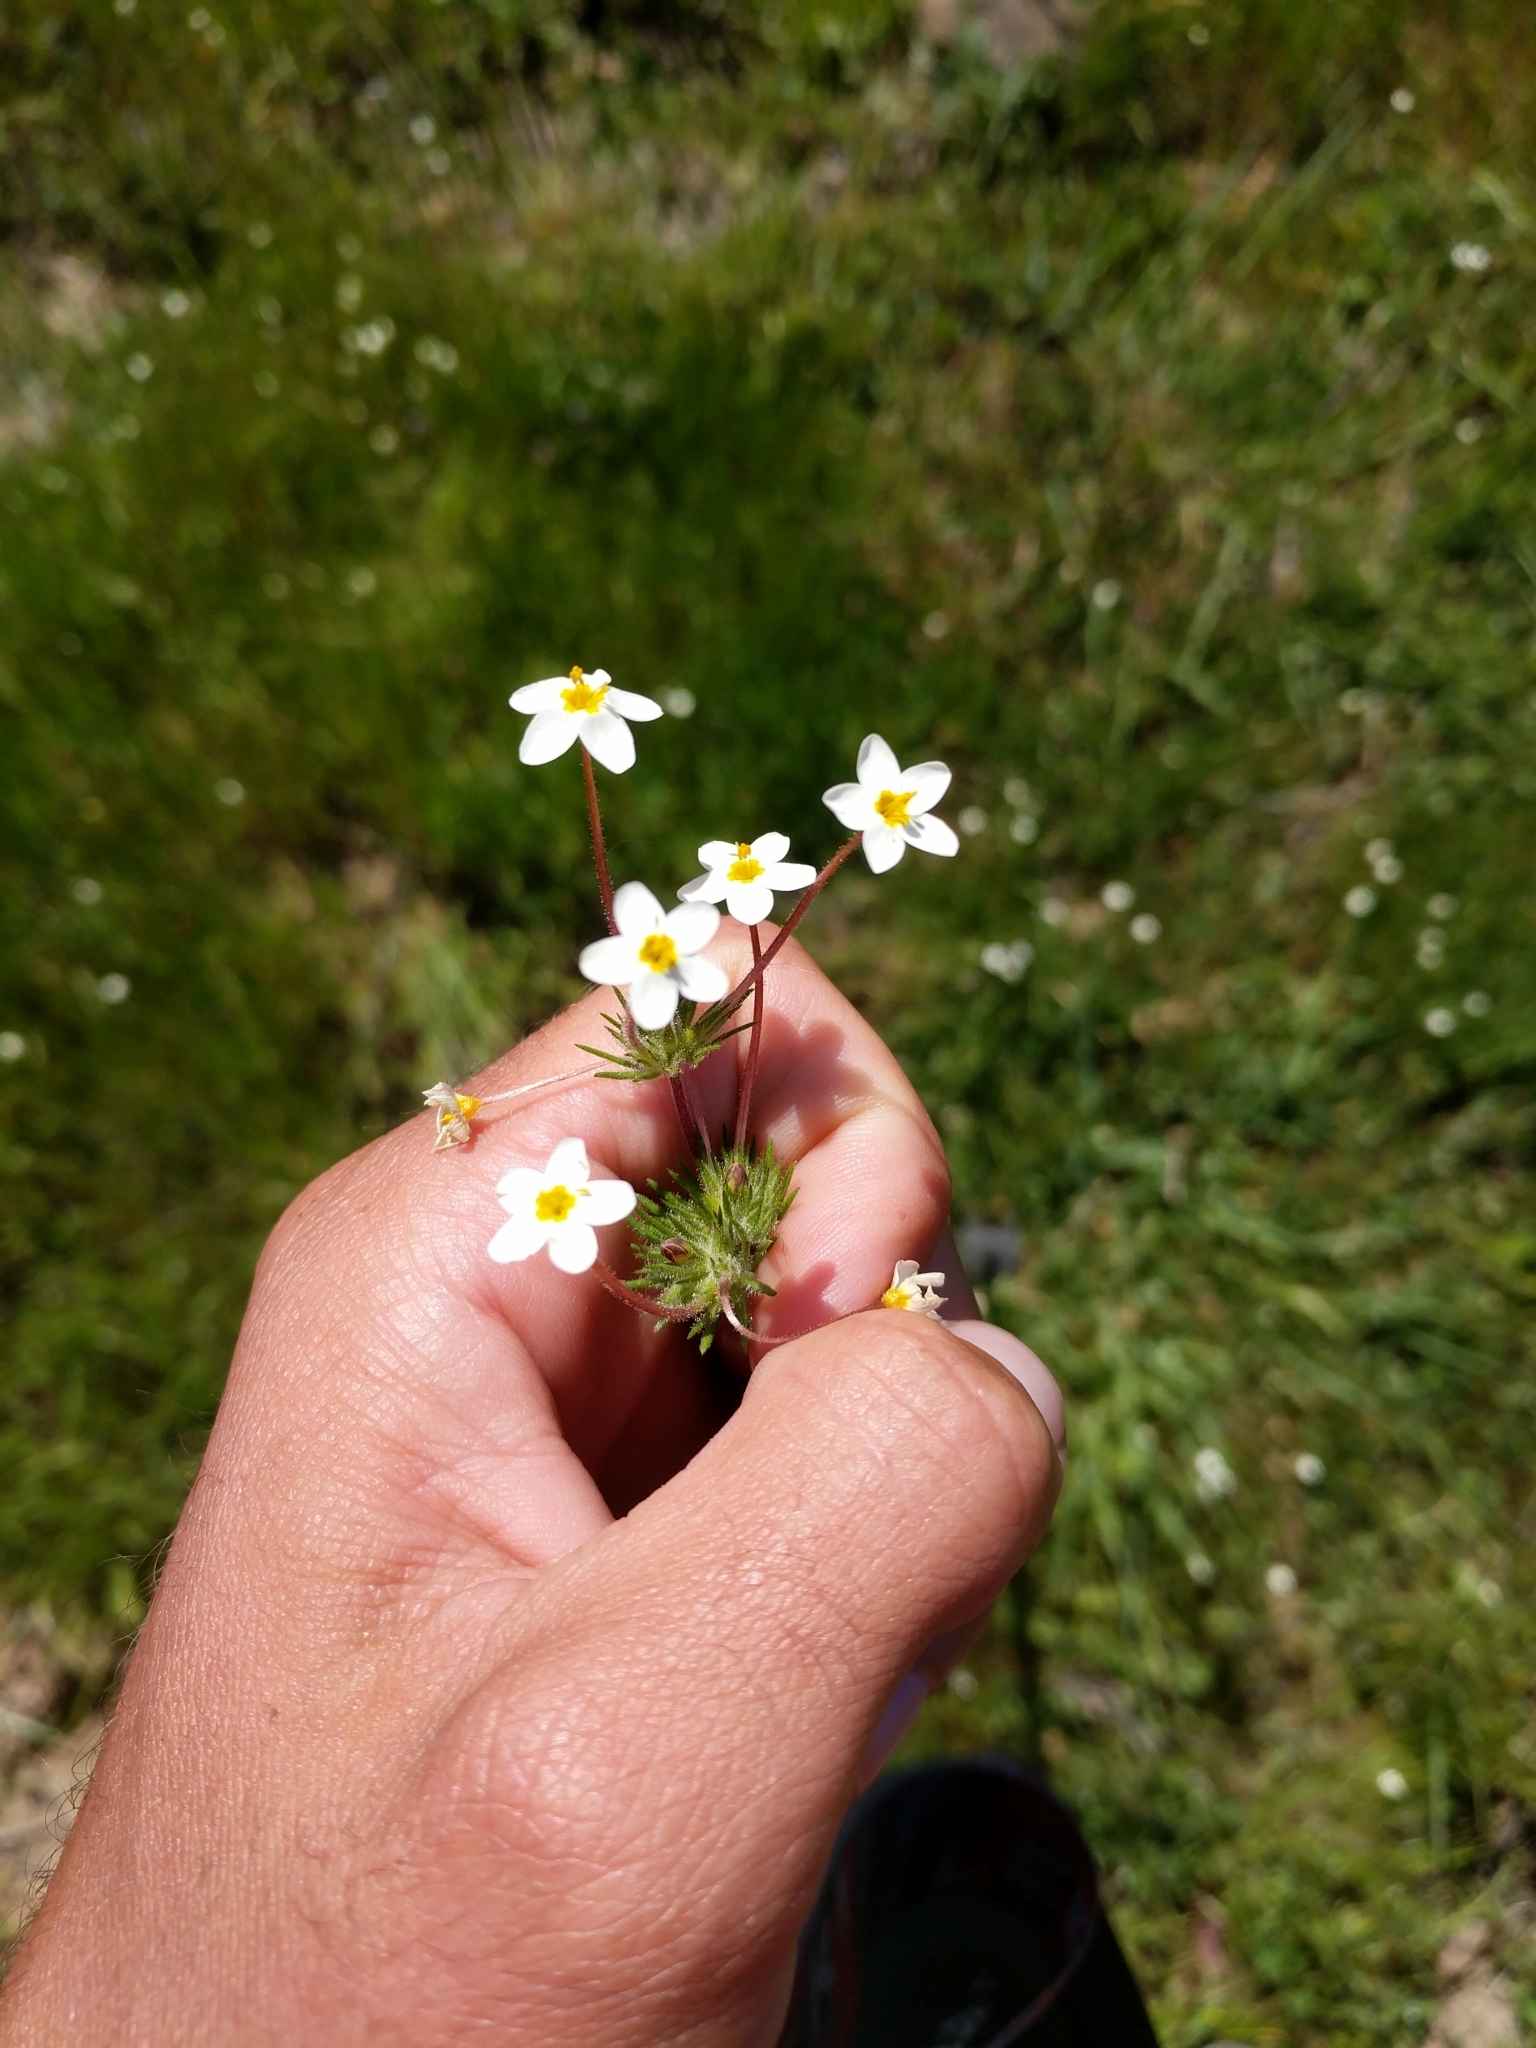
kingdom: Plantae
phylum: Tracheophyta
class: Magnoliopsida
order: Ericales
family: Polemoniaceae
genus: Leptosiphon
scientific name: Leptosiphon parviflorus
